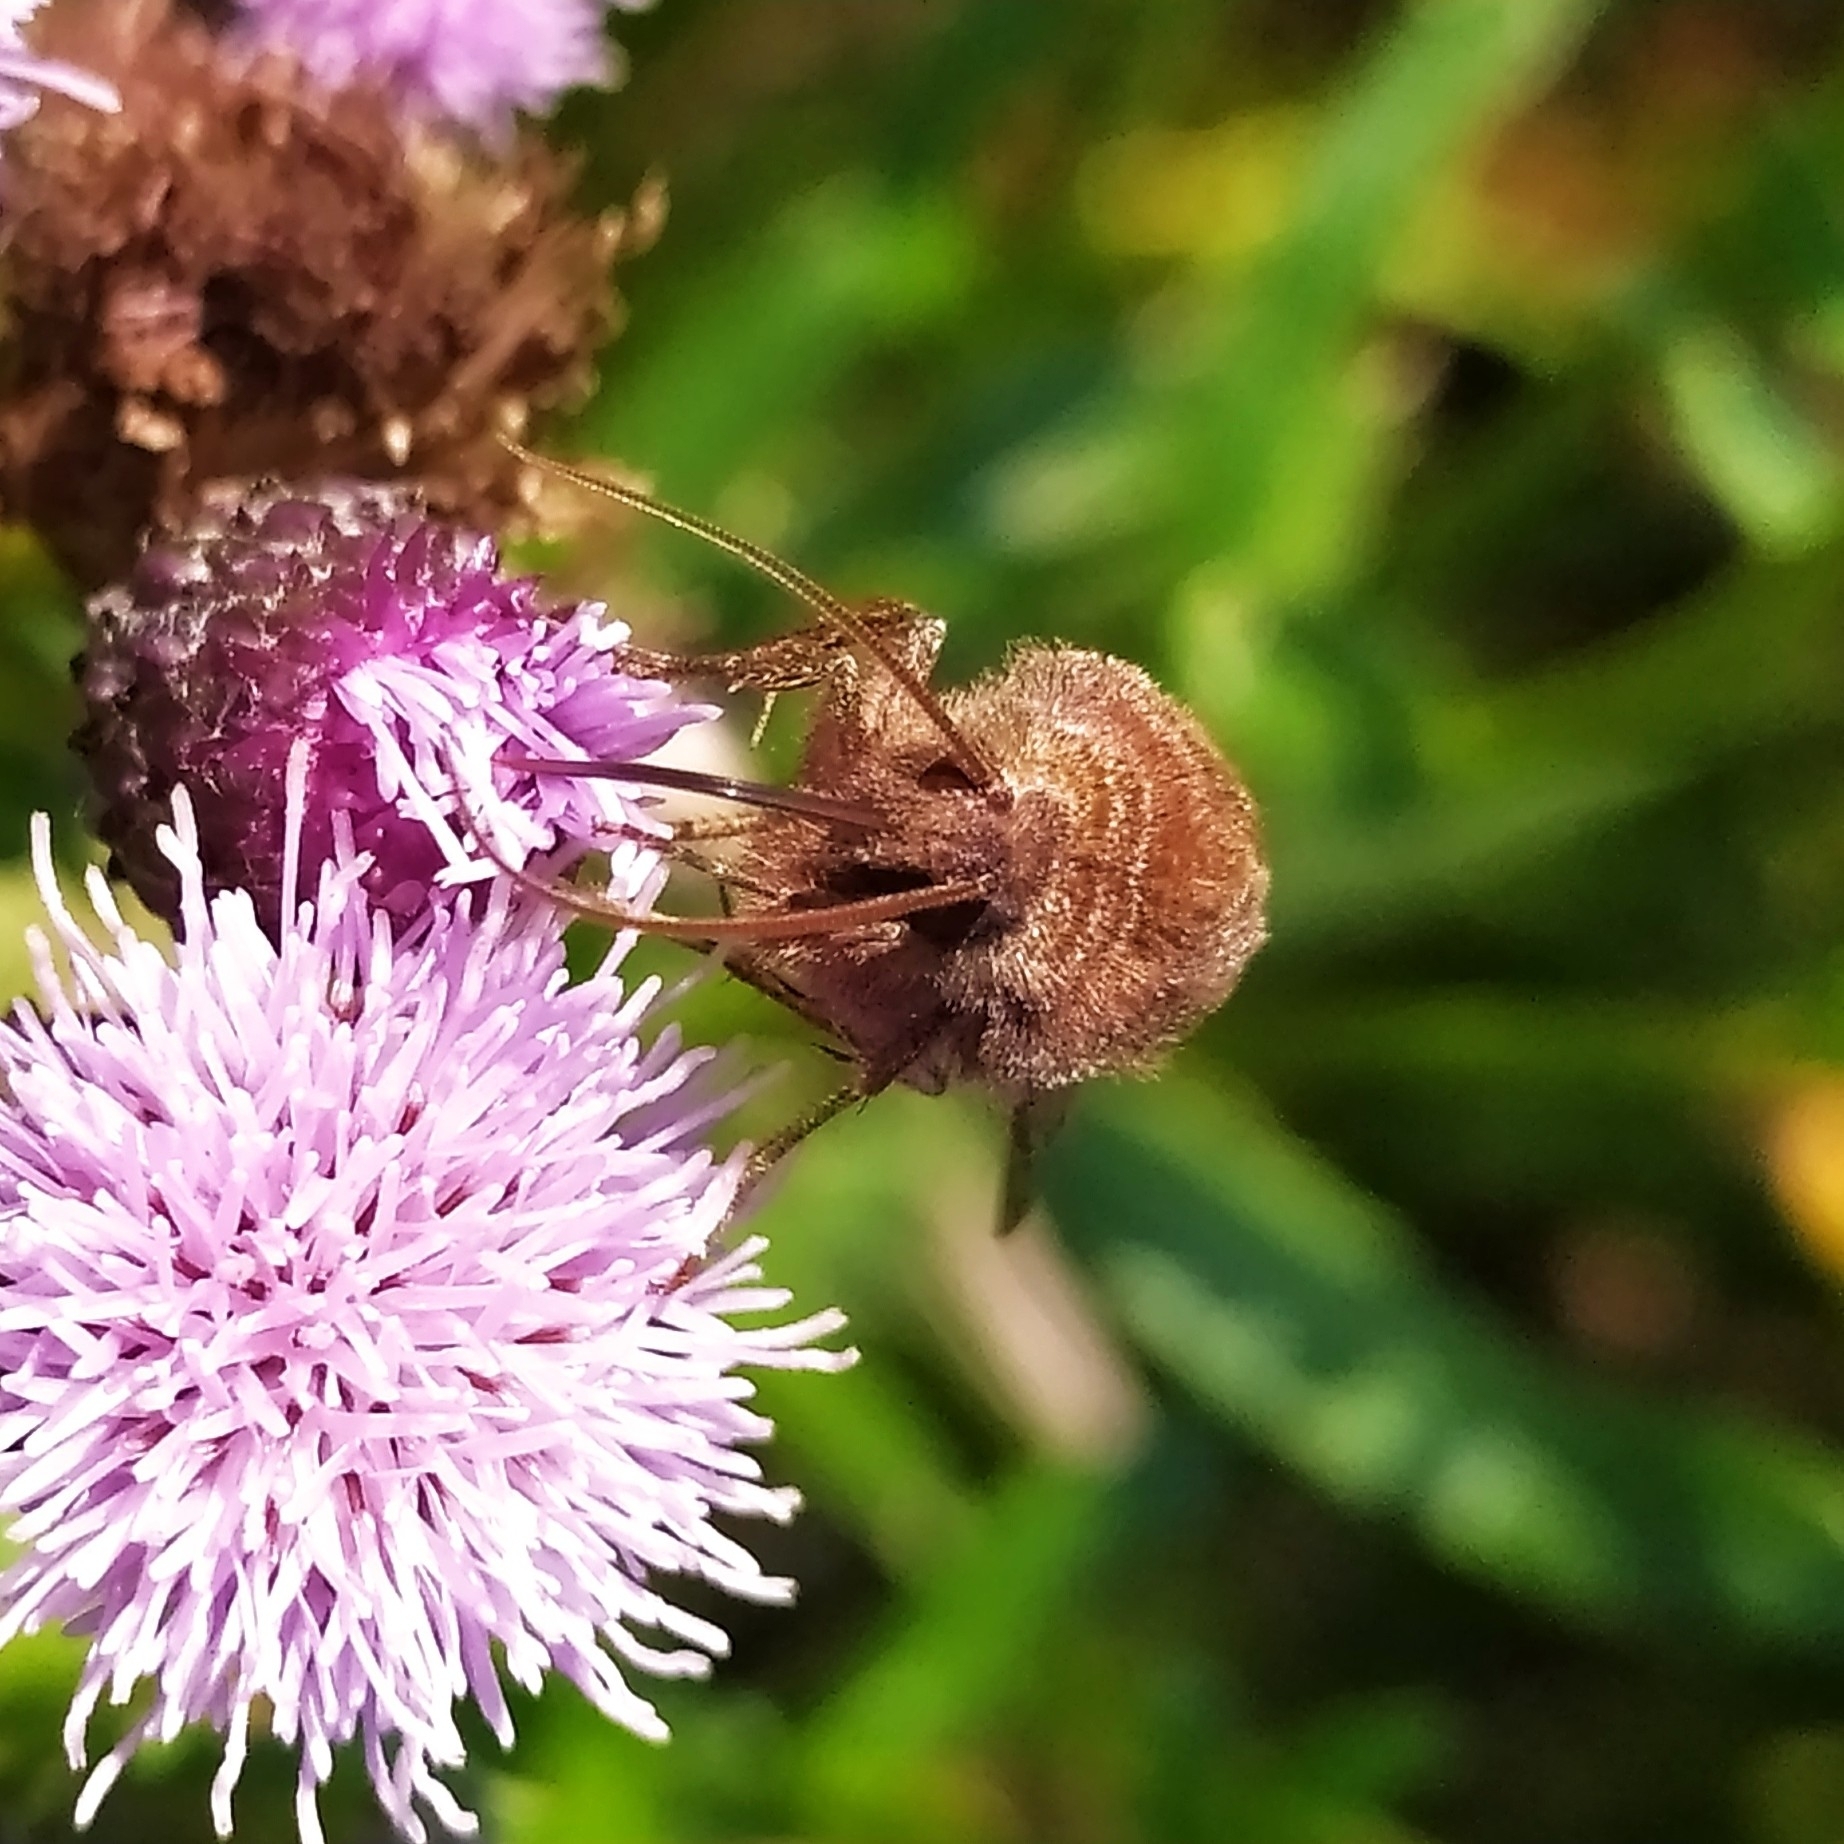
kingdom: Animalia
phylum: Arthropoda
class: Insecta
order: Lepidoptera
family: Noctuidae
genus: Chersotis
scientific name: Chersotis cuprea
